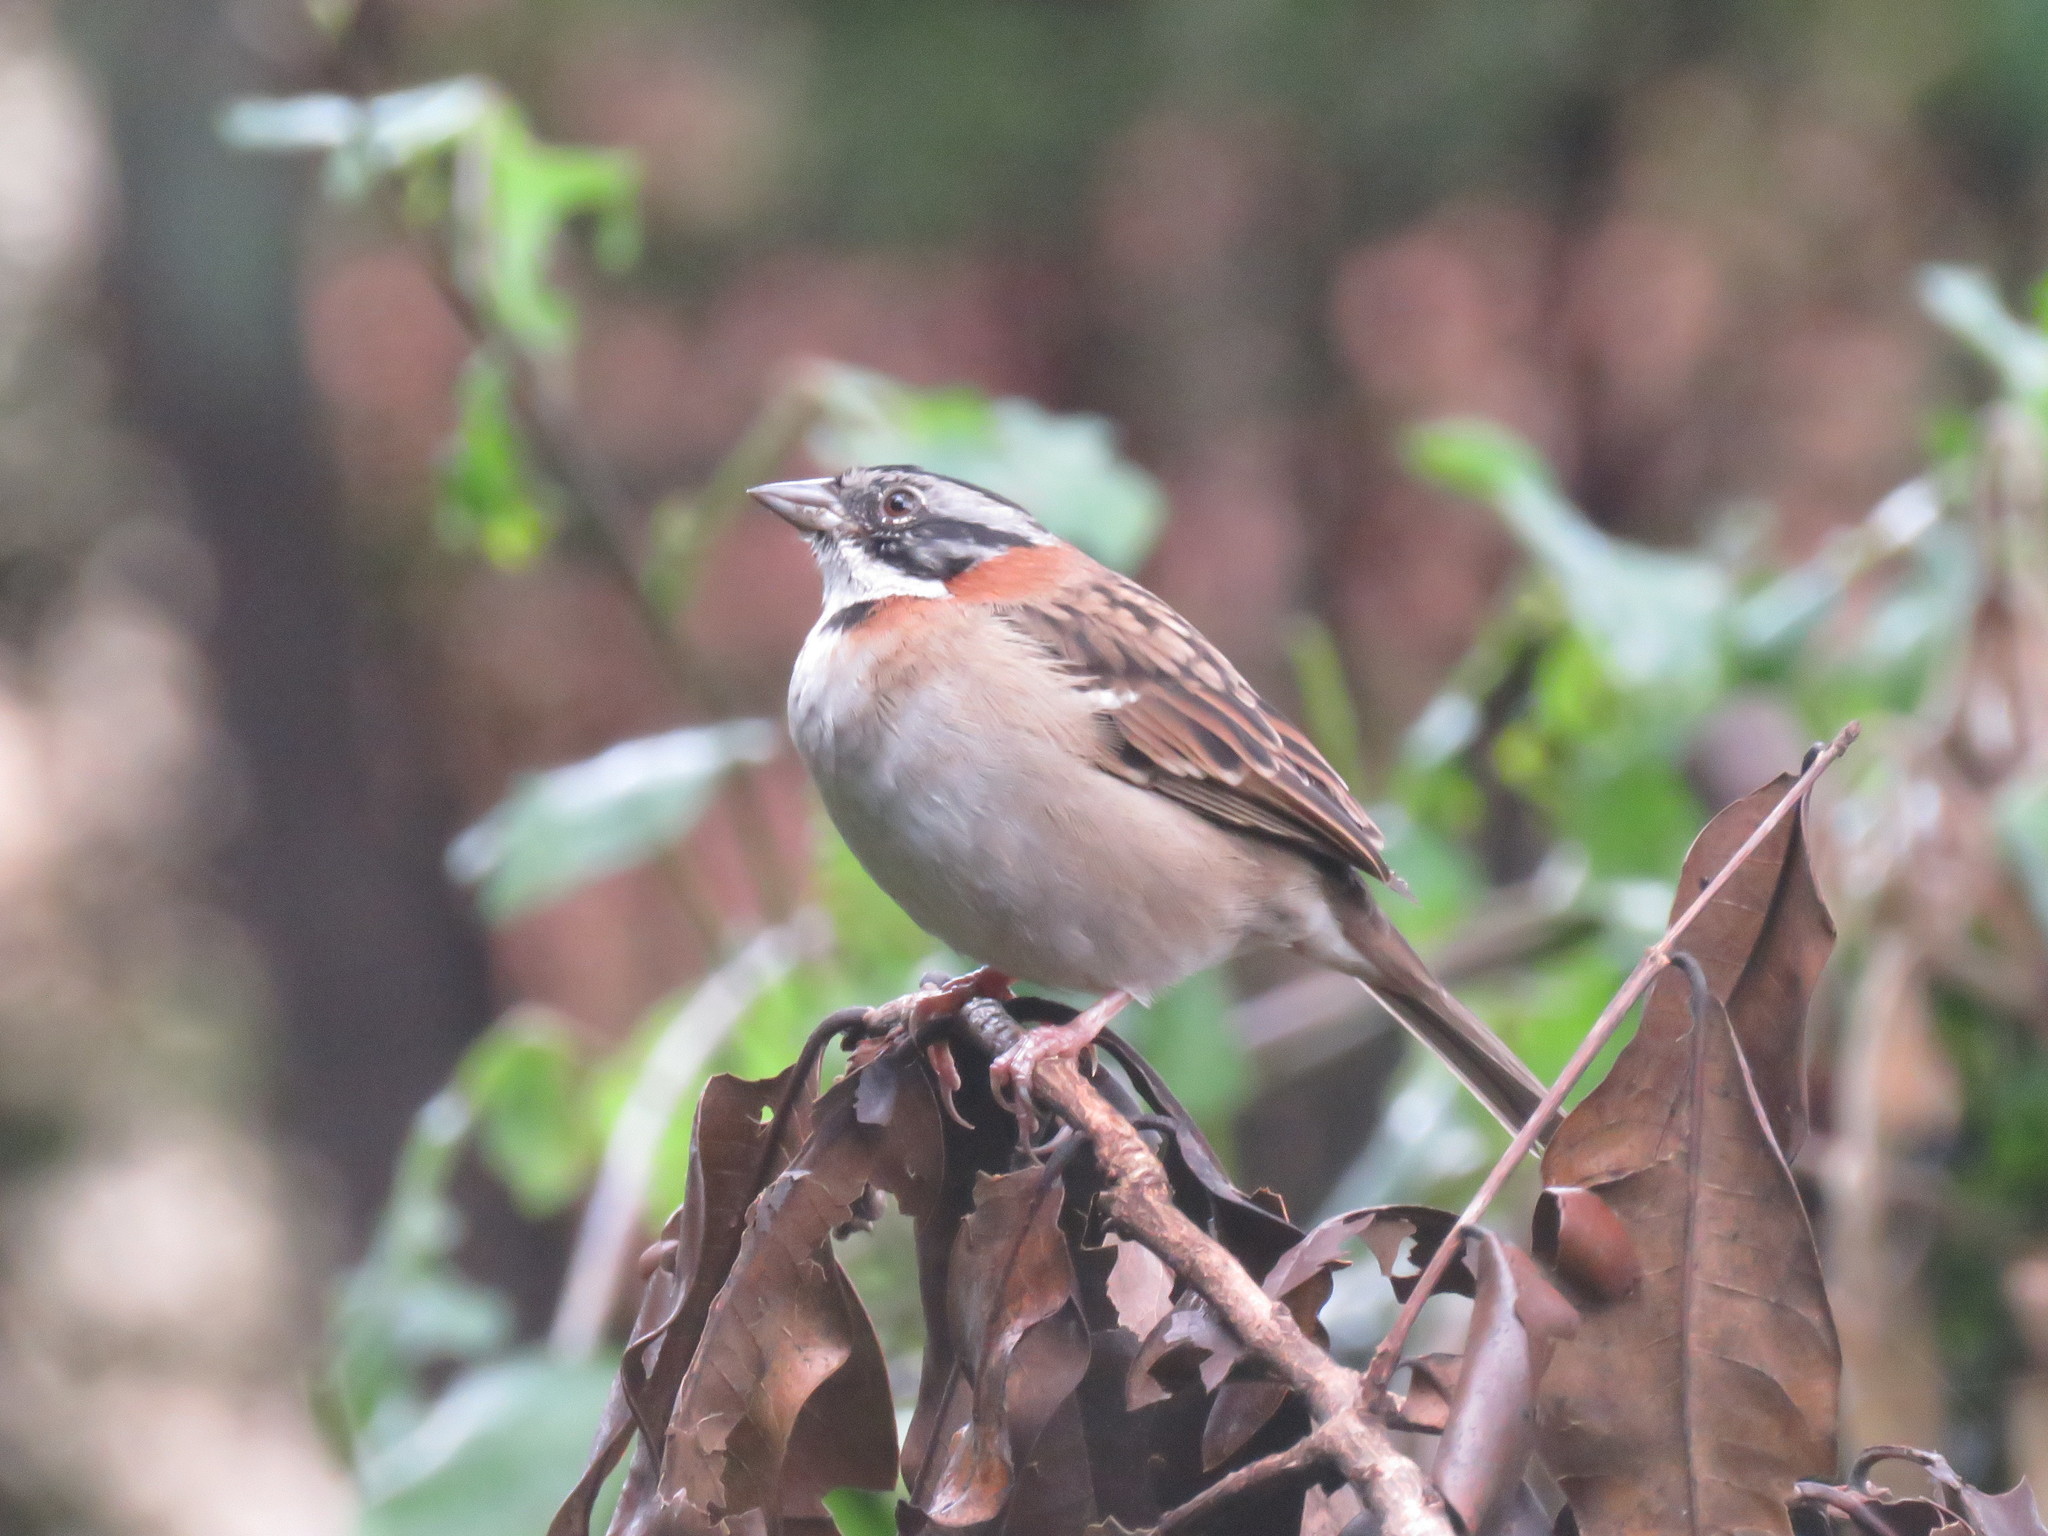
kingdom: Animalia
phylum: Chordata
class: Aves
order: Passeriformes
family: Passerellidae
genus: Zonotrichia
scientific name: Zonotrichia capensis
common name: Rufous-collared sparrow
